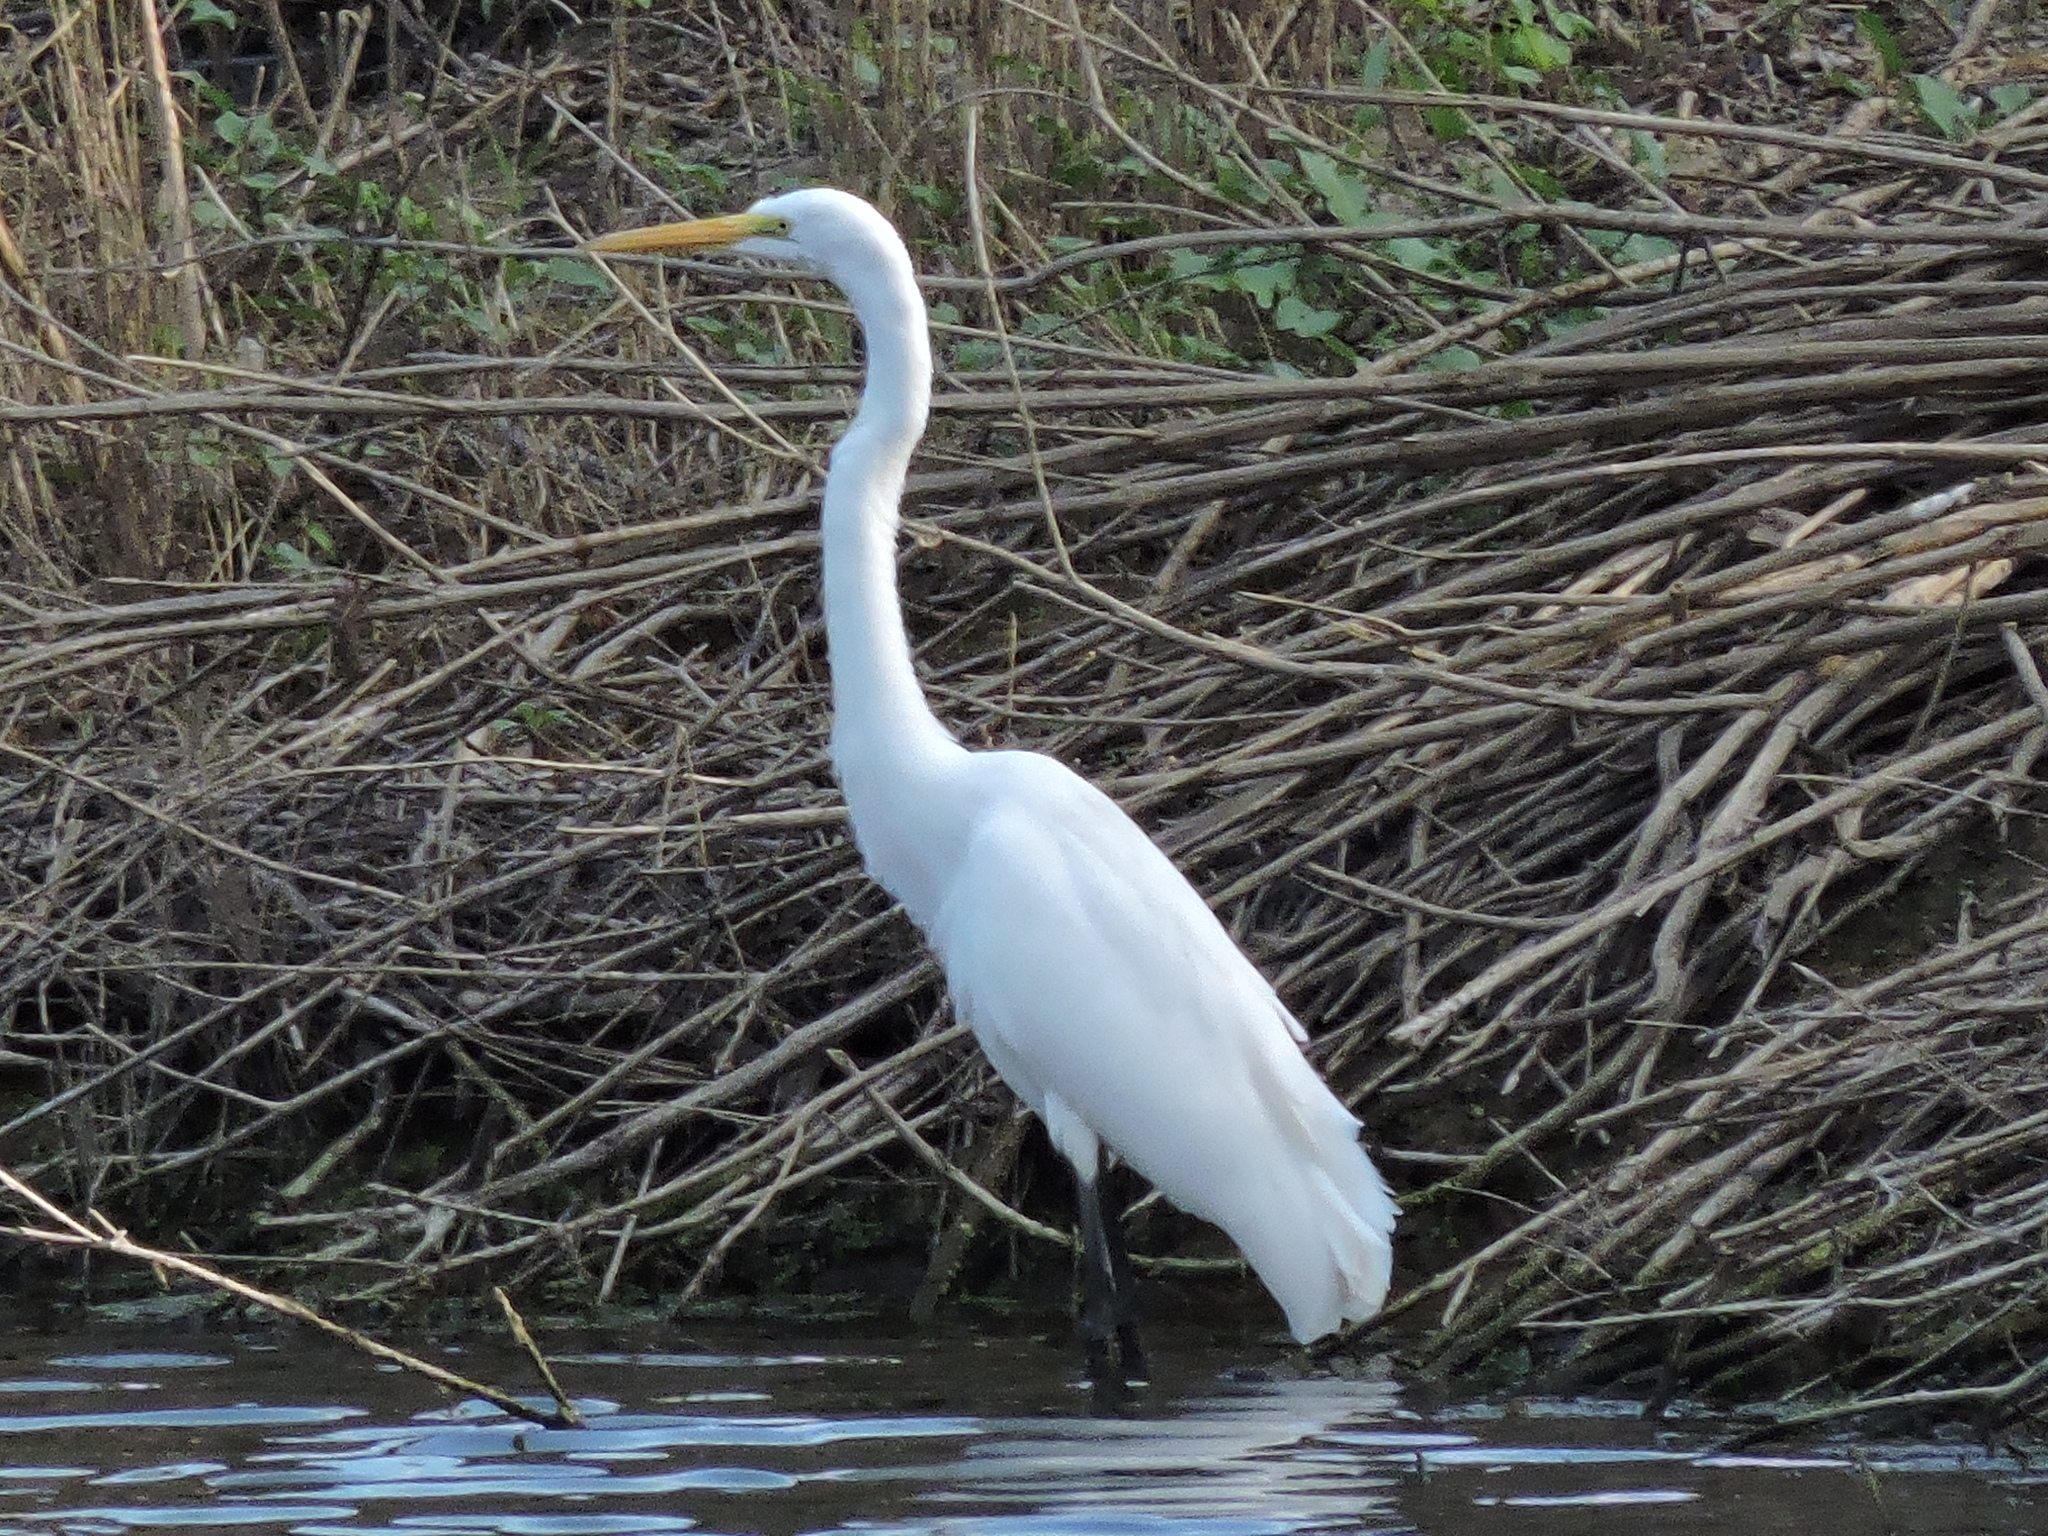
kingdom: Animalia
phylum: Chordata
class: Aves
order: Pelecaniformes
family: Ardeidae
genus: Ardea
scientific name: Ardea alba
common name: Great egret
